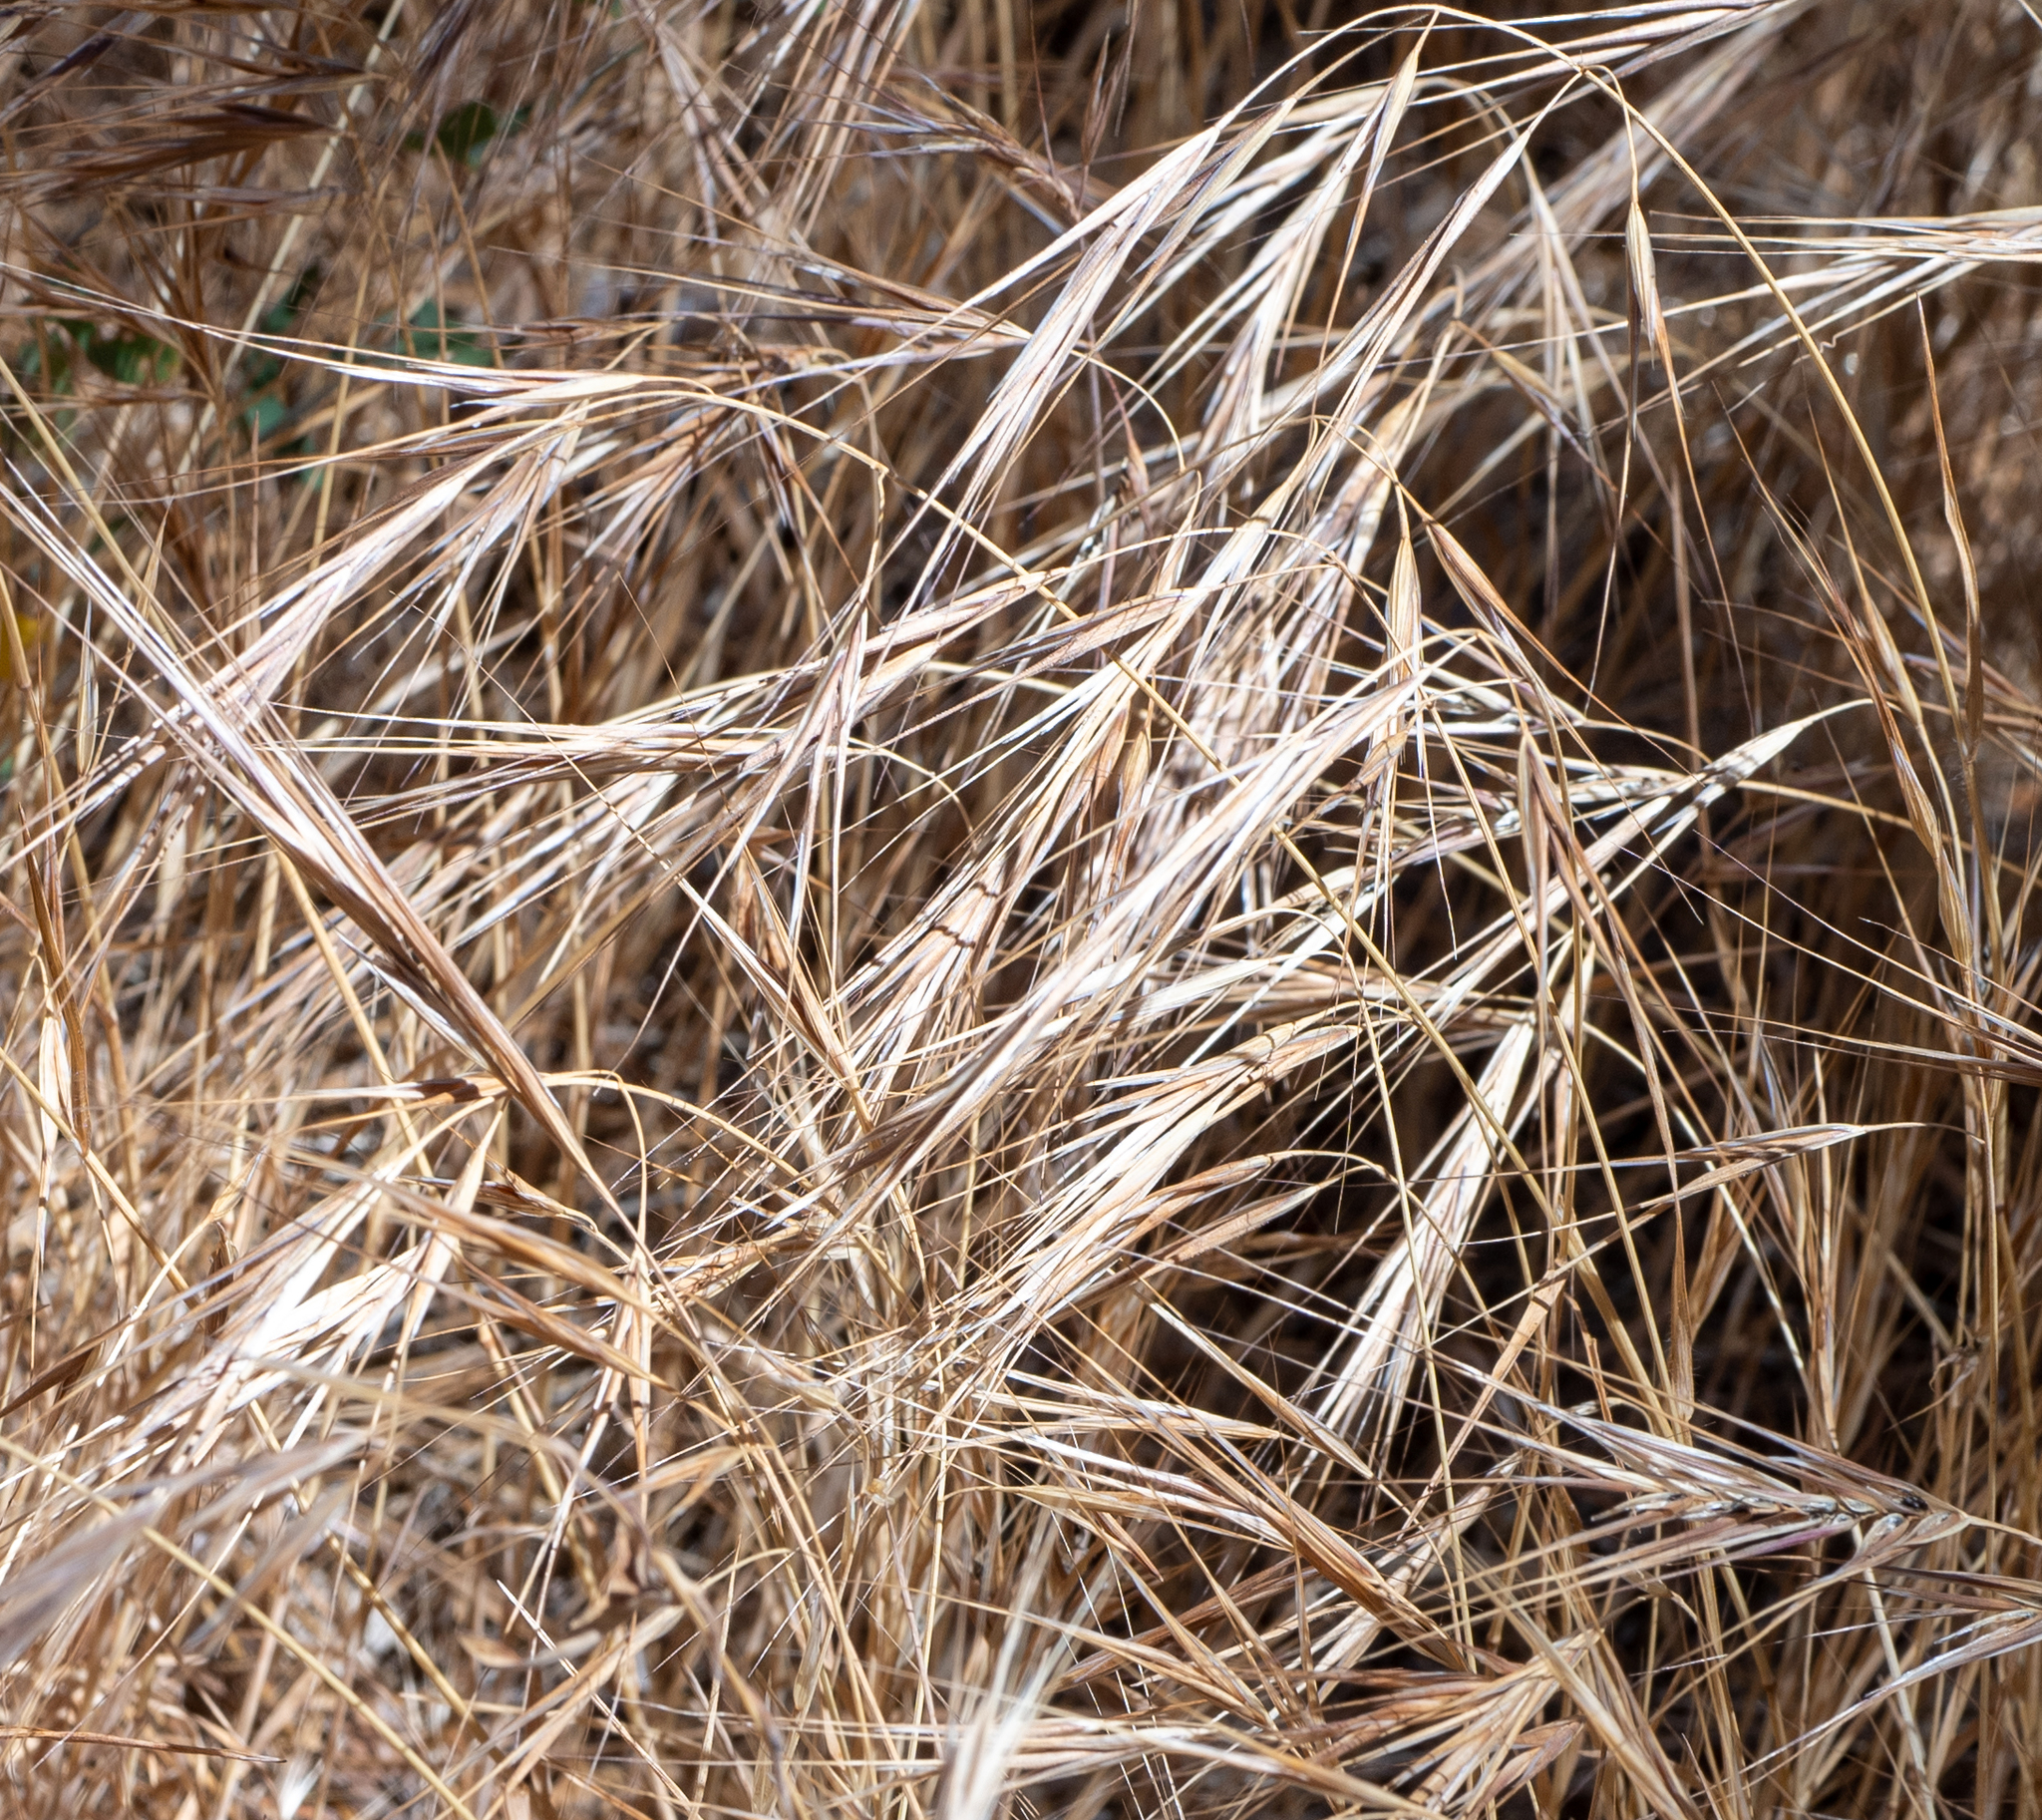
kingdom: Plantae
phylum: Tracheophyta
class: Liliopsida
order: Poales
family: Poaceae
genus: Bromus
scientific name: Bromus diandrus
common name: Ripgut brome
